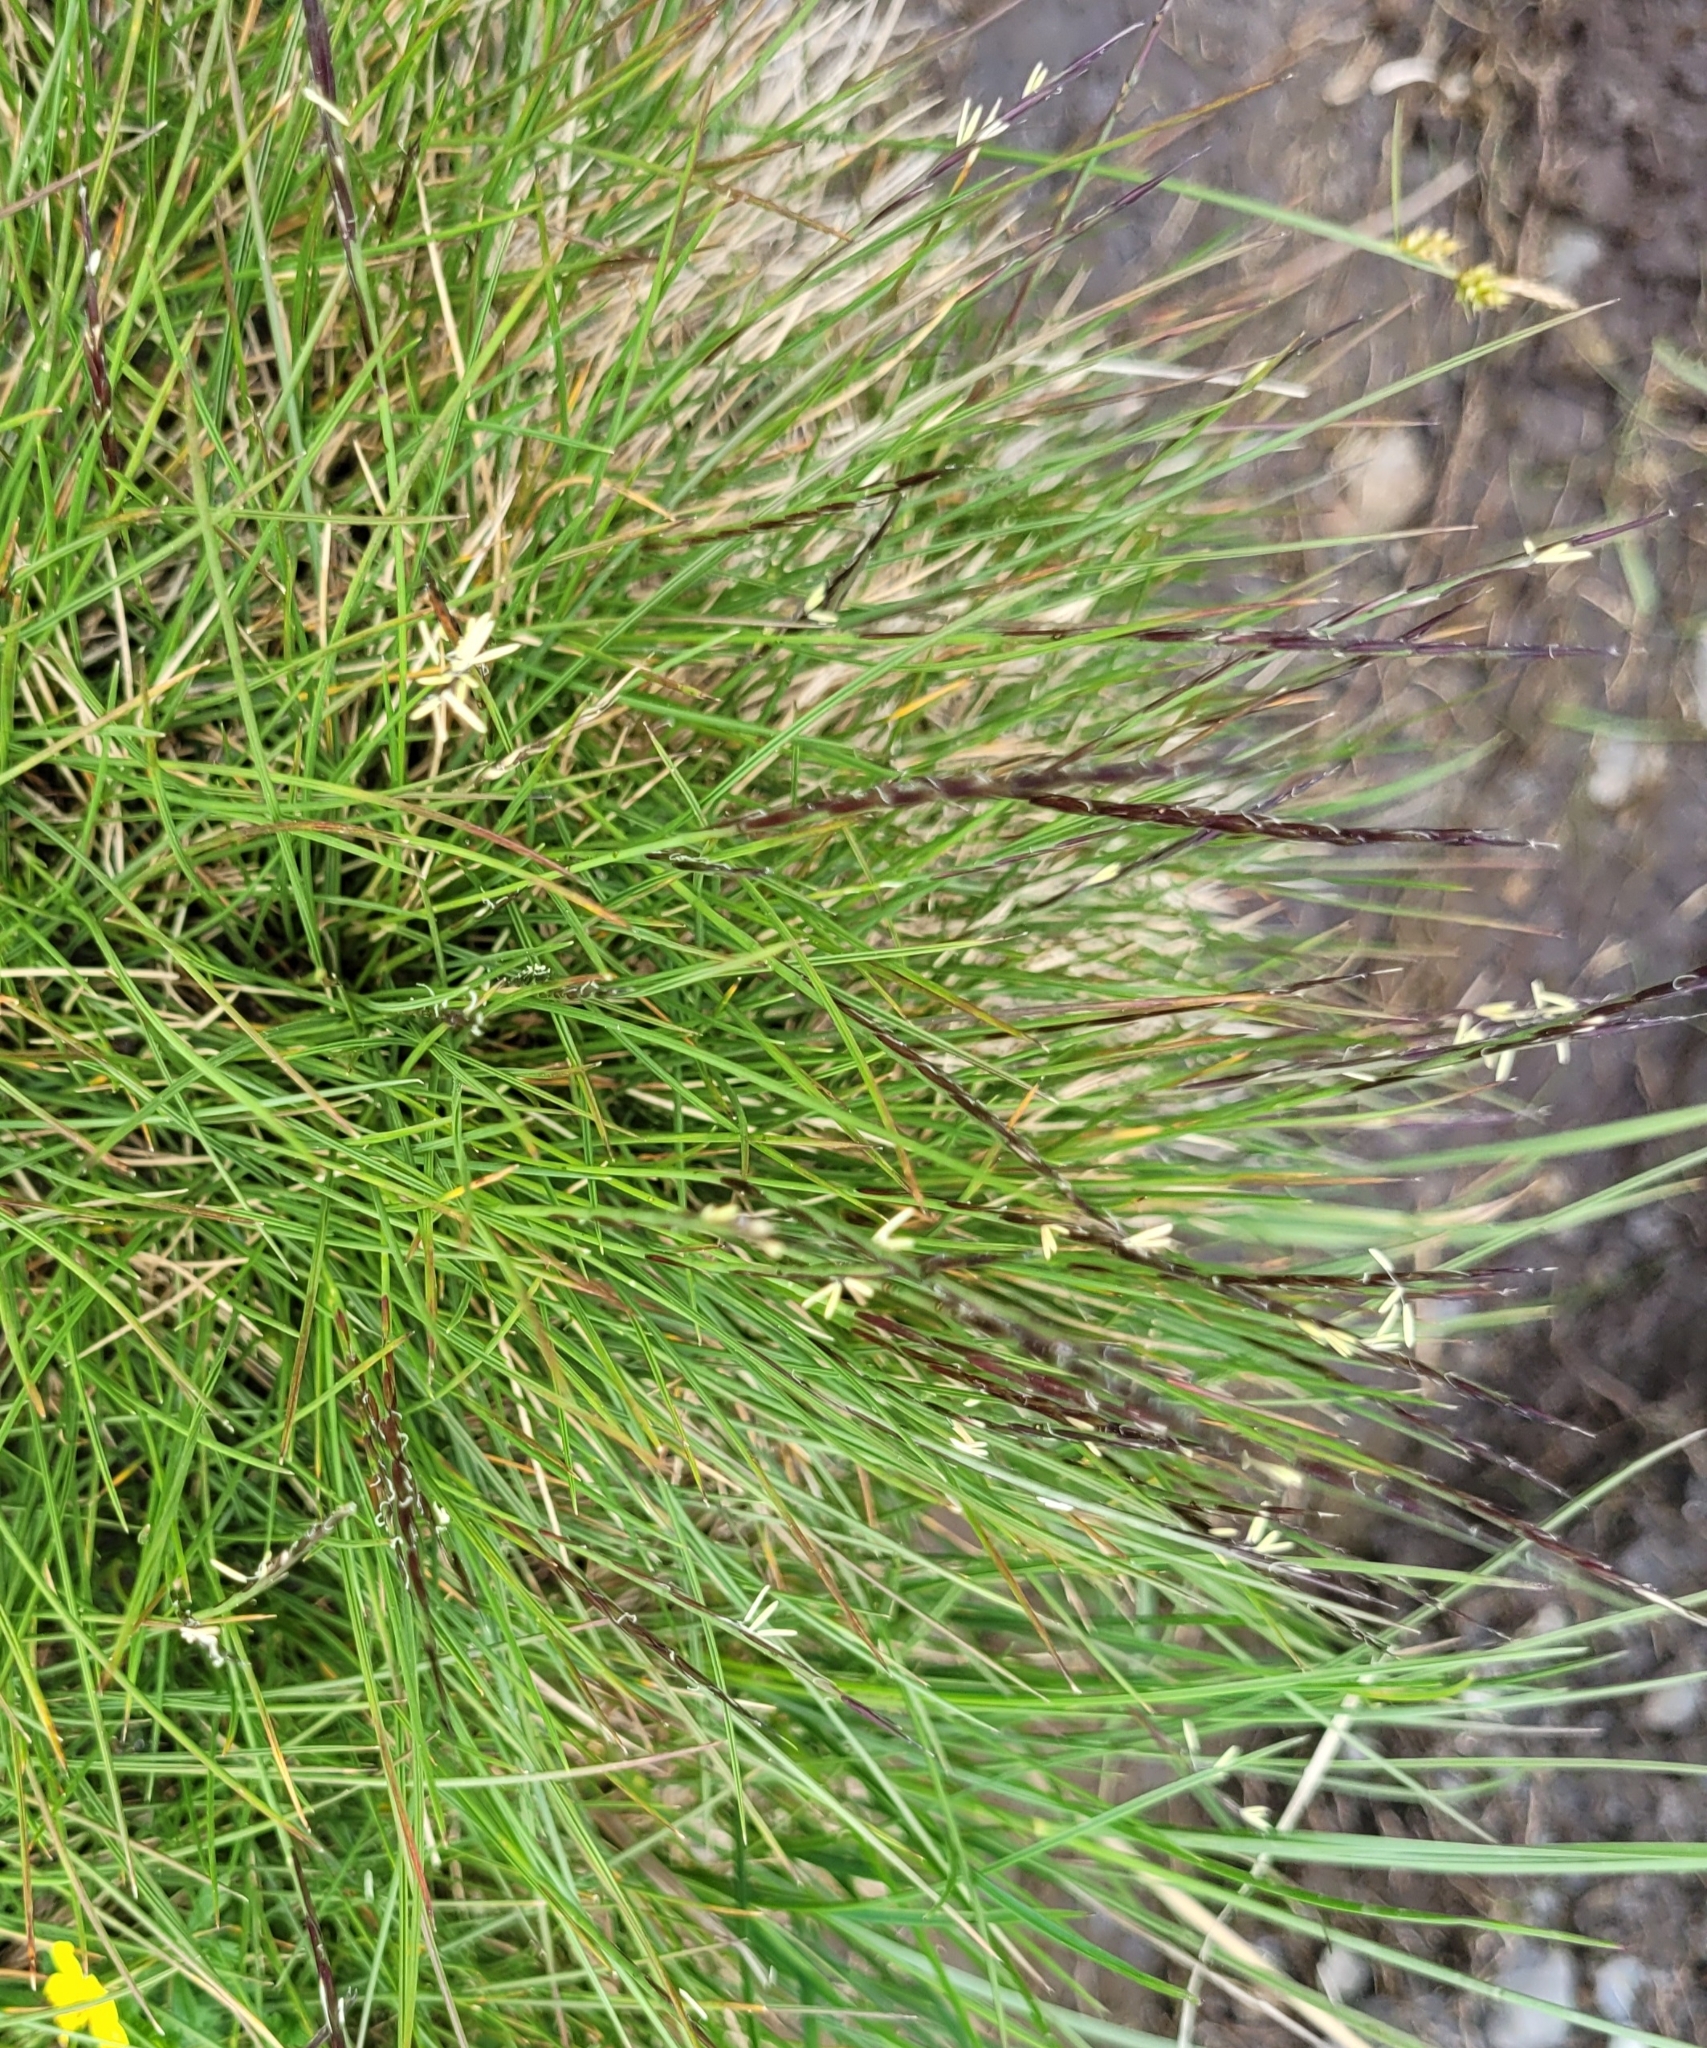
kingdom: Plantae
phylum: Tracheophyta
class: Liliopsida
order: Poales
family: Poaceae
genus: Nardus
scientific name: Nardus stricta
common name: Mat-grass
